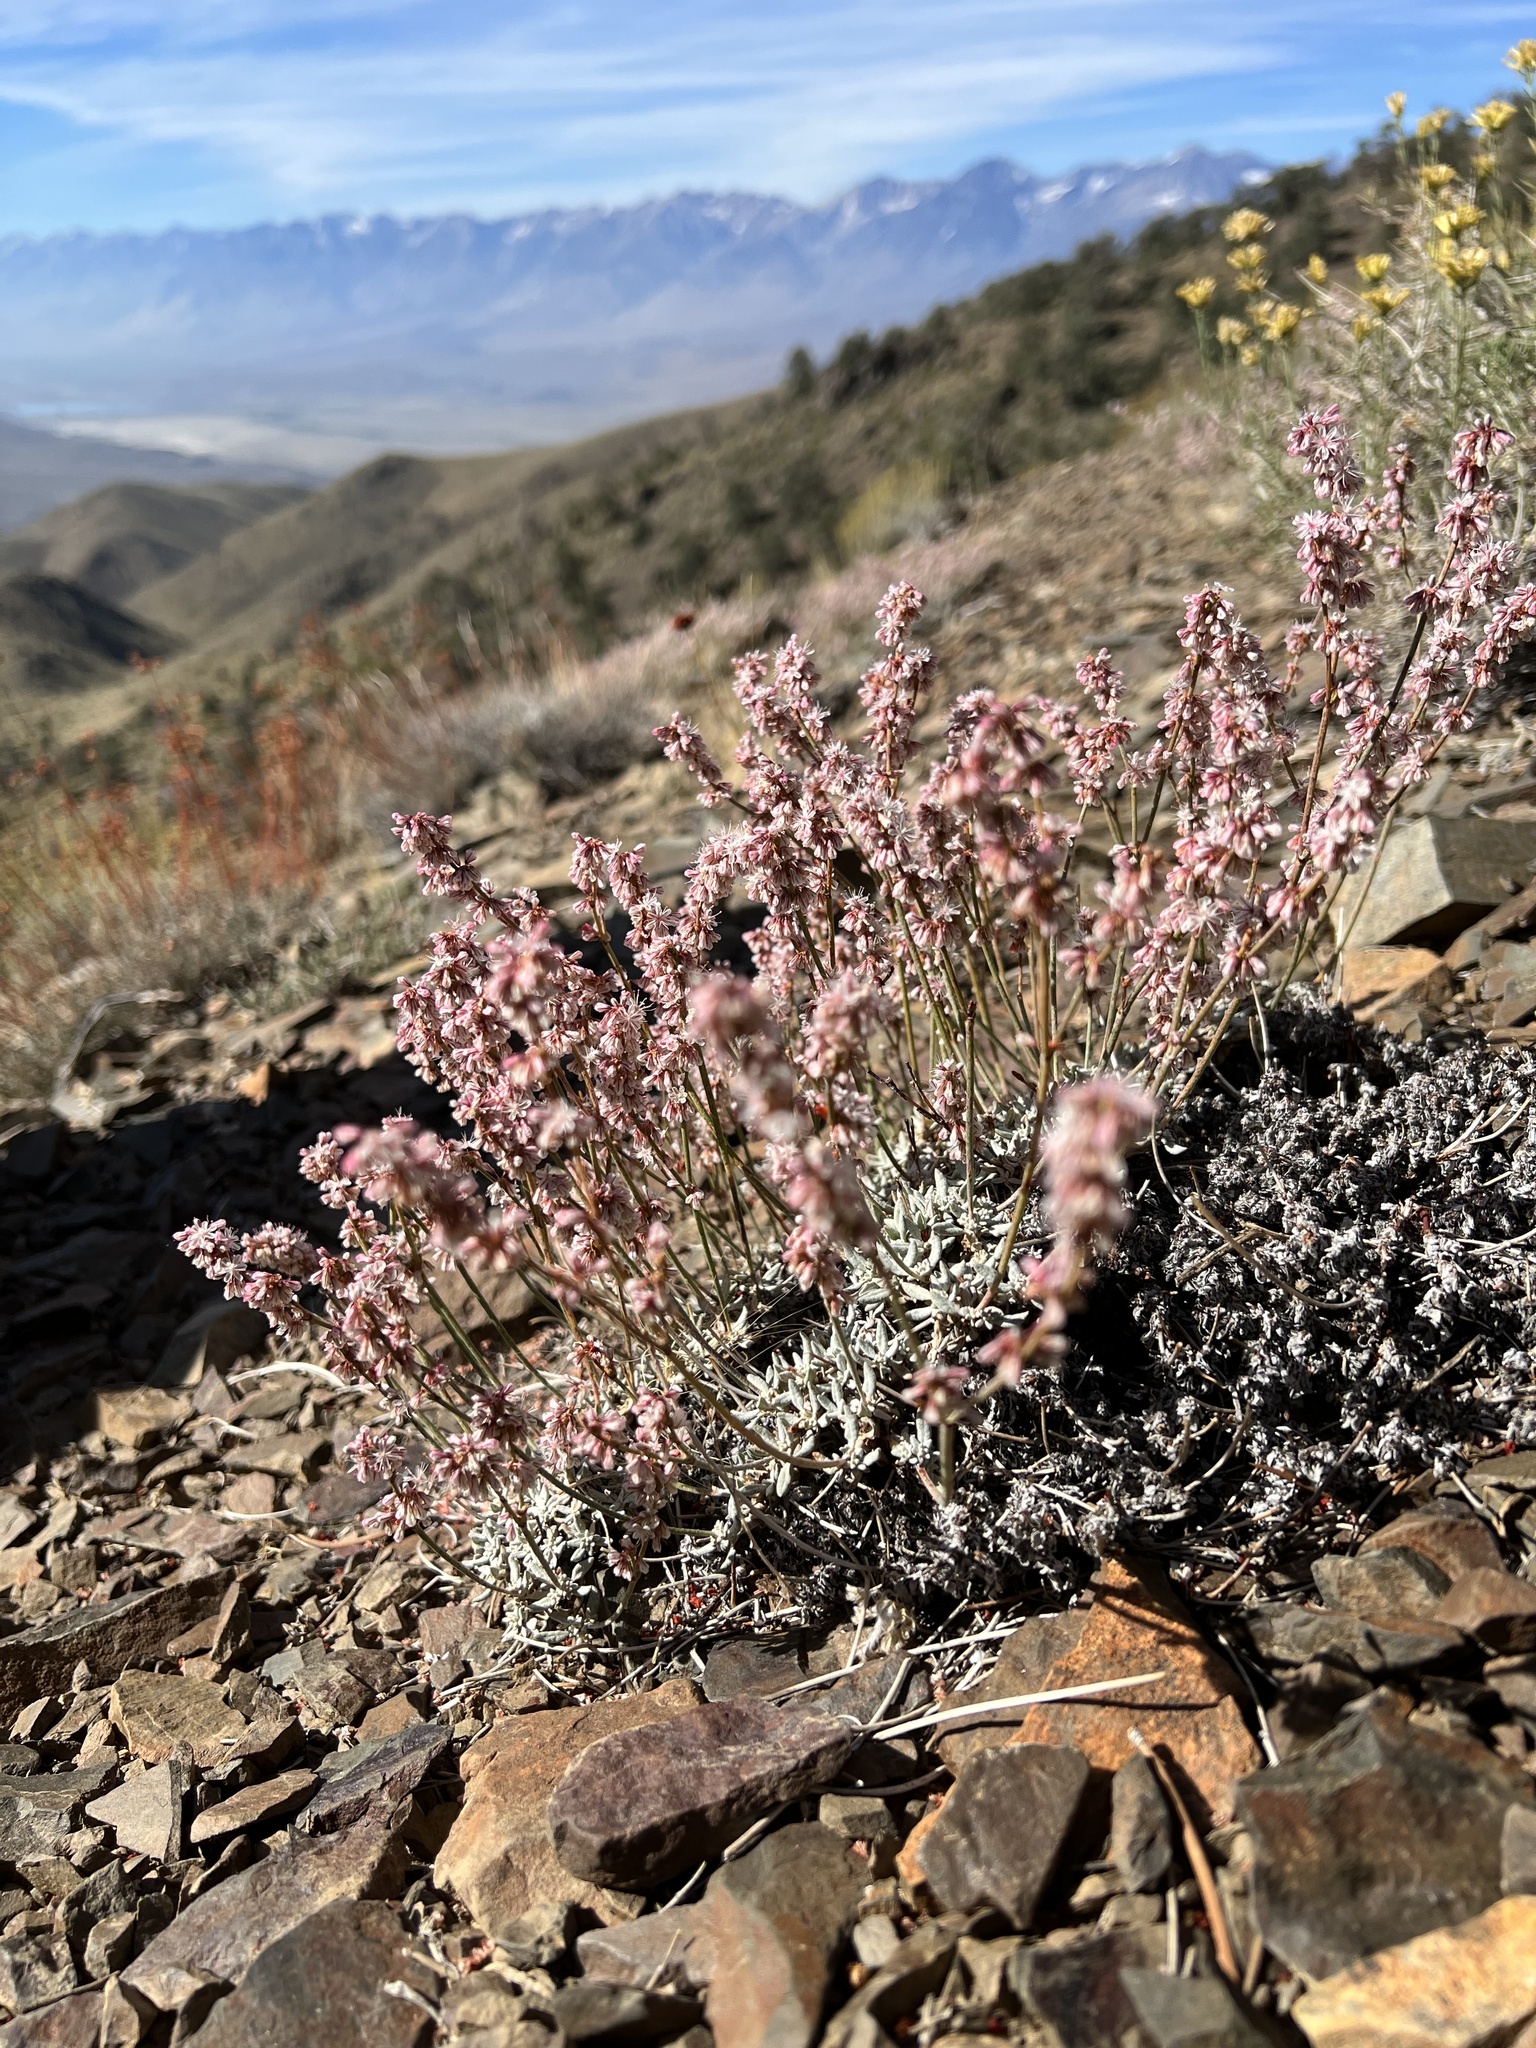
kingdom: Plantae
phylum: Tracheophyta
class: Magnoliopsida
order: Caryophyllales
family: Polygonaceae
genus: Eriogonum
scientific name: Eriogonum wrightii
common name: Bastard-sage
